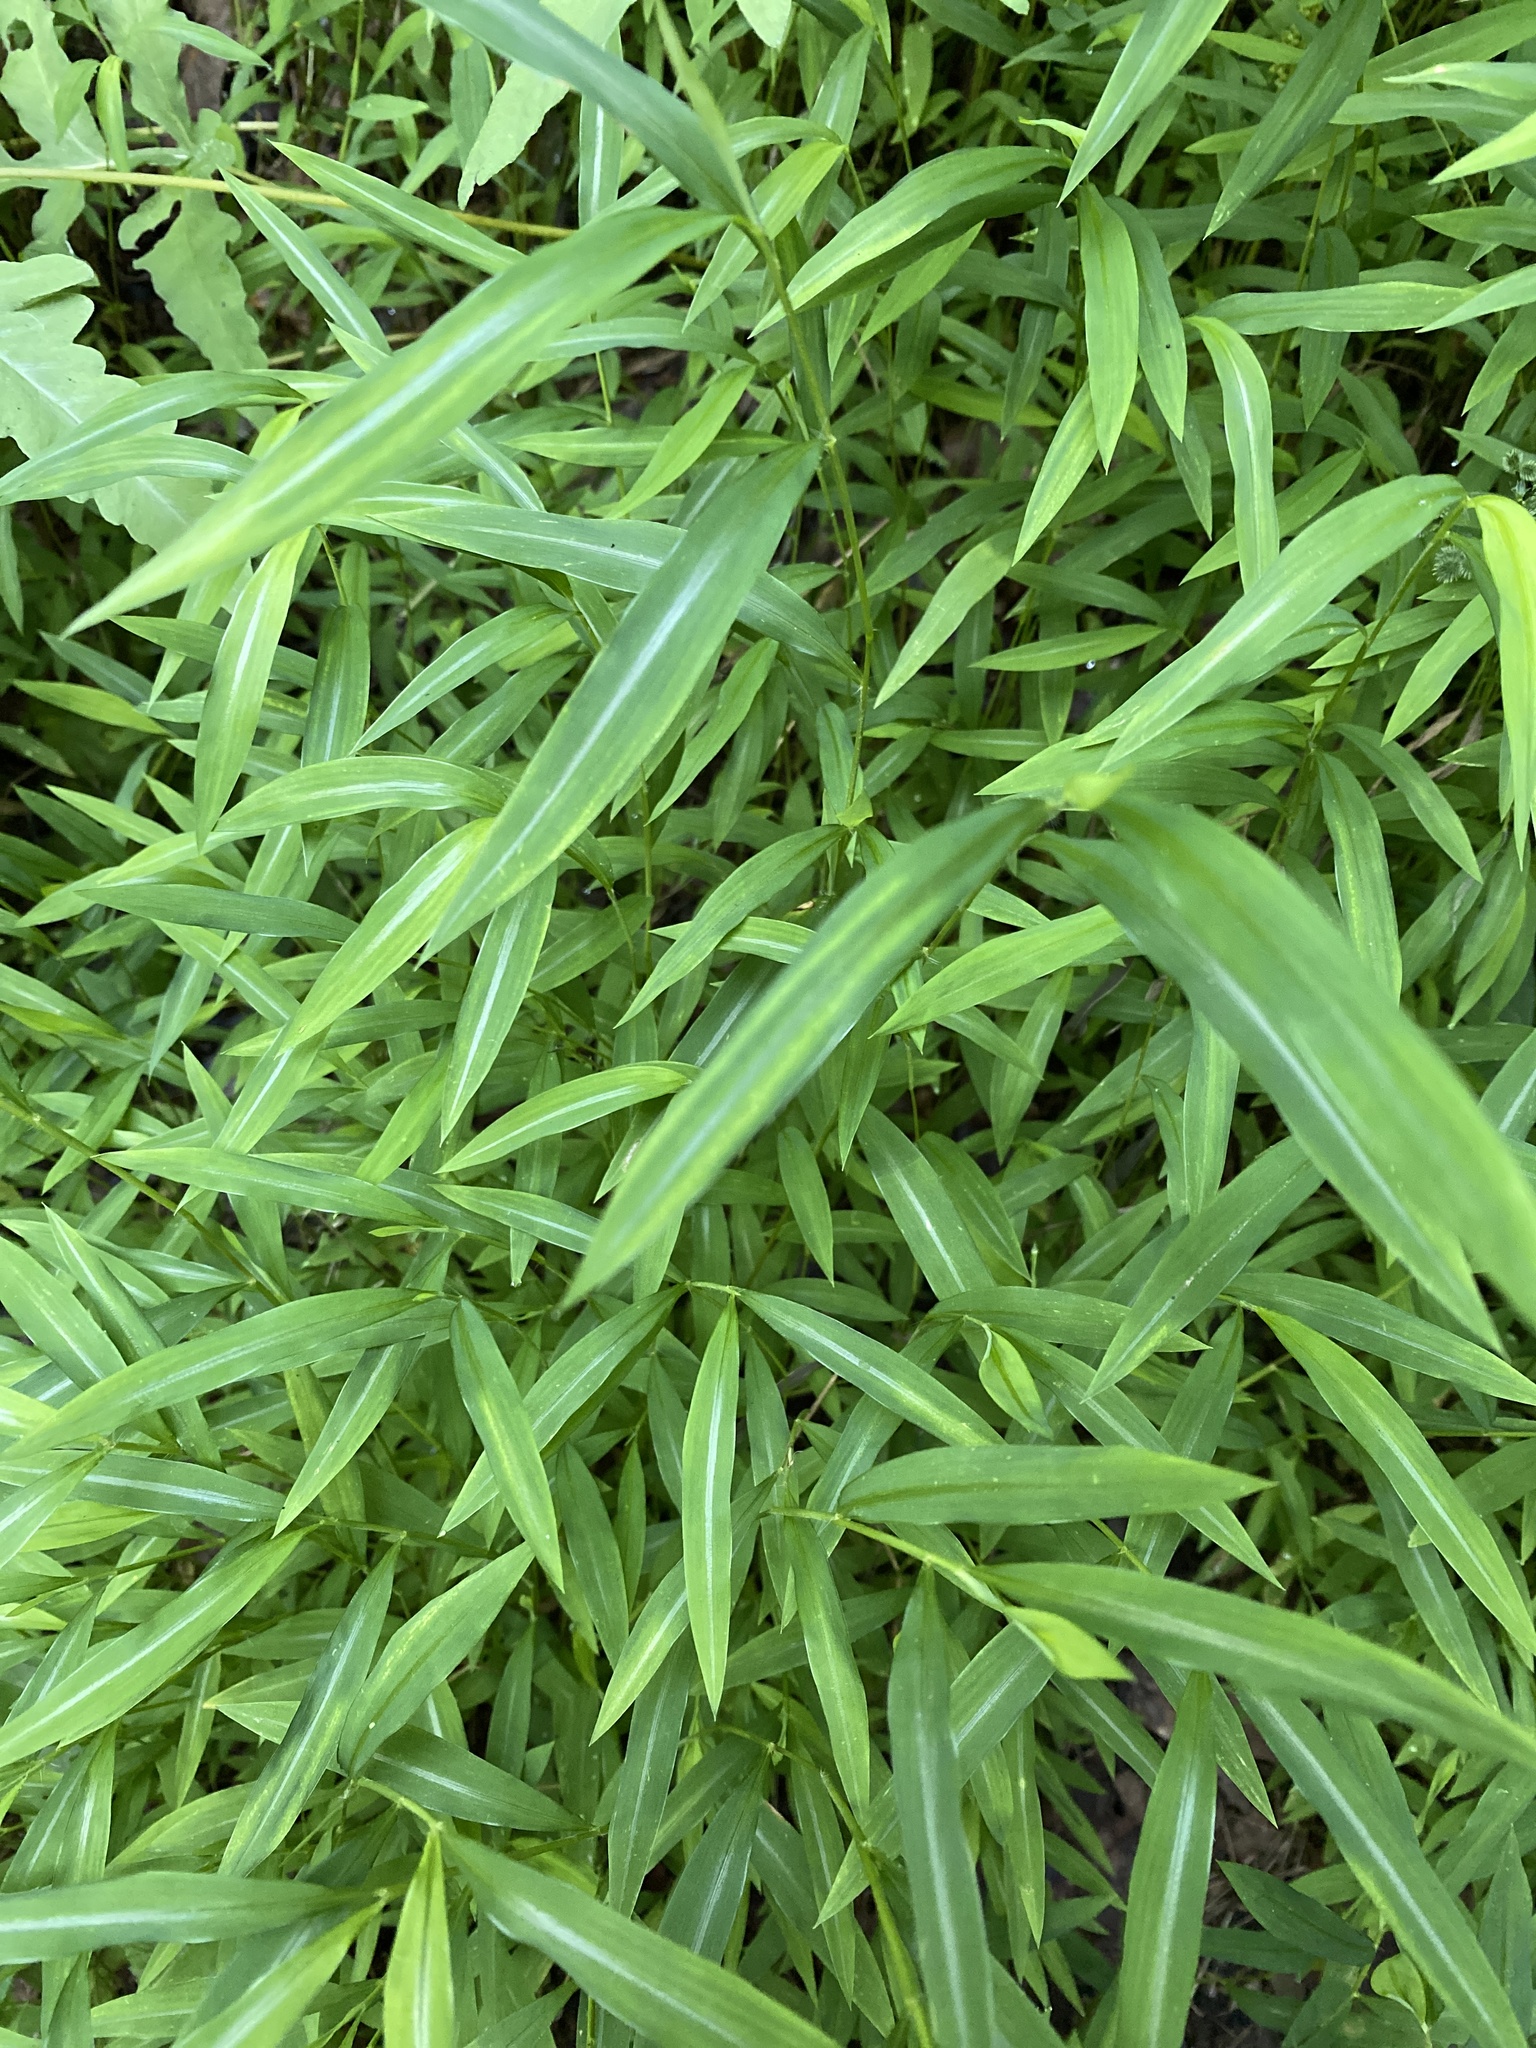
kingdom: Plantae
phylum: Tracheophyta
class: Liliopsida
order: Poales
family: Poaceae
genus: Microstegium
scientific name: Microstegium vimineum
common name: Japanese stiltgrass
